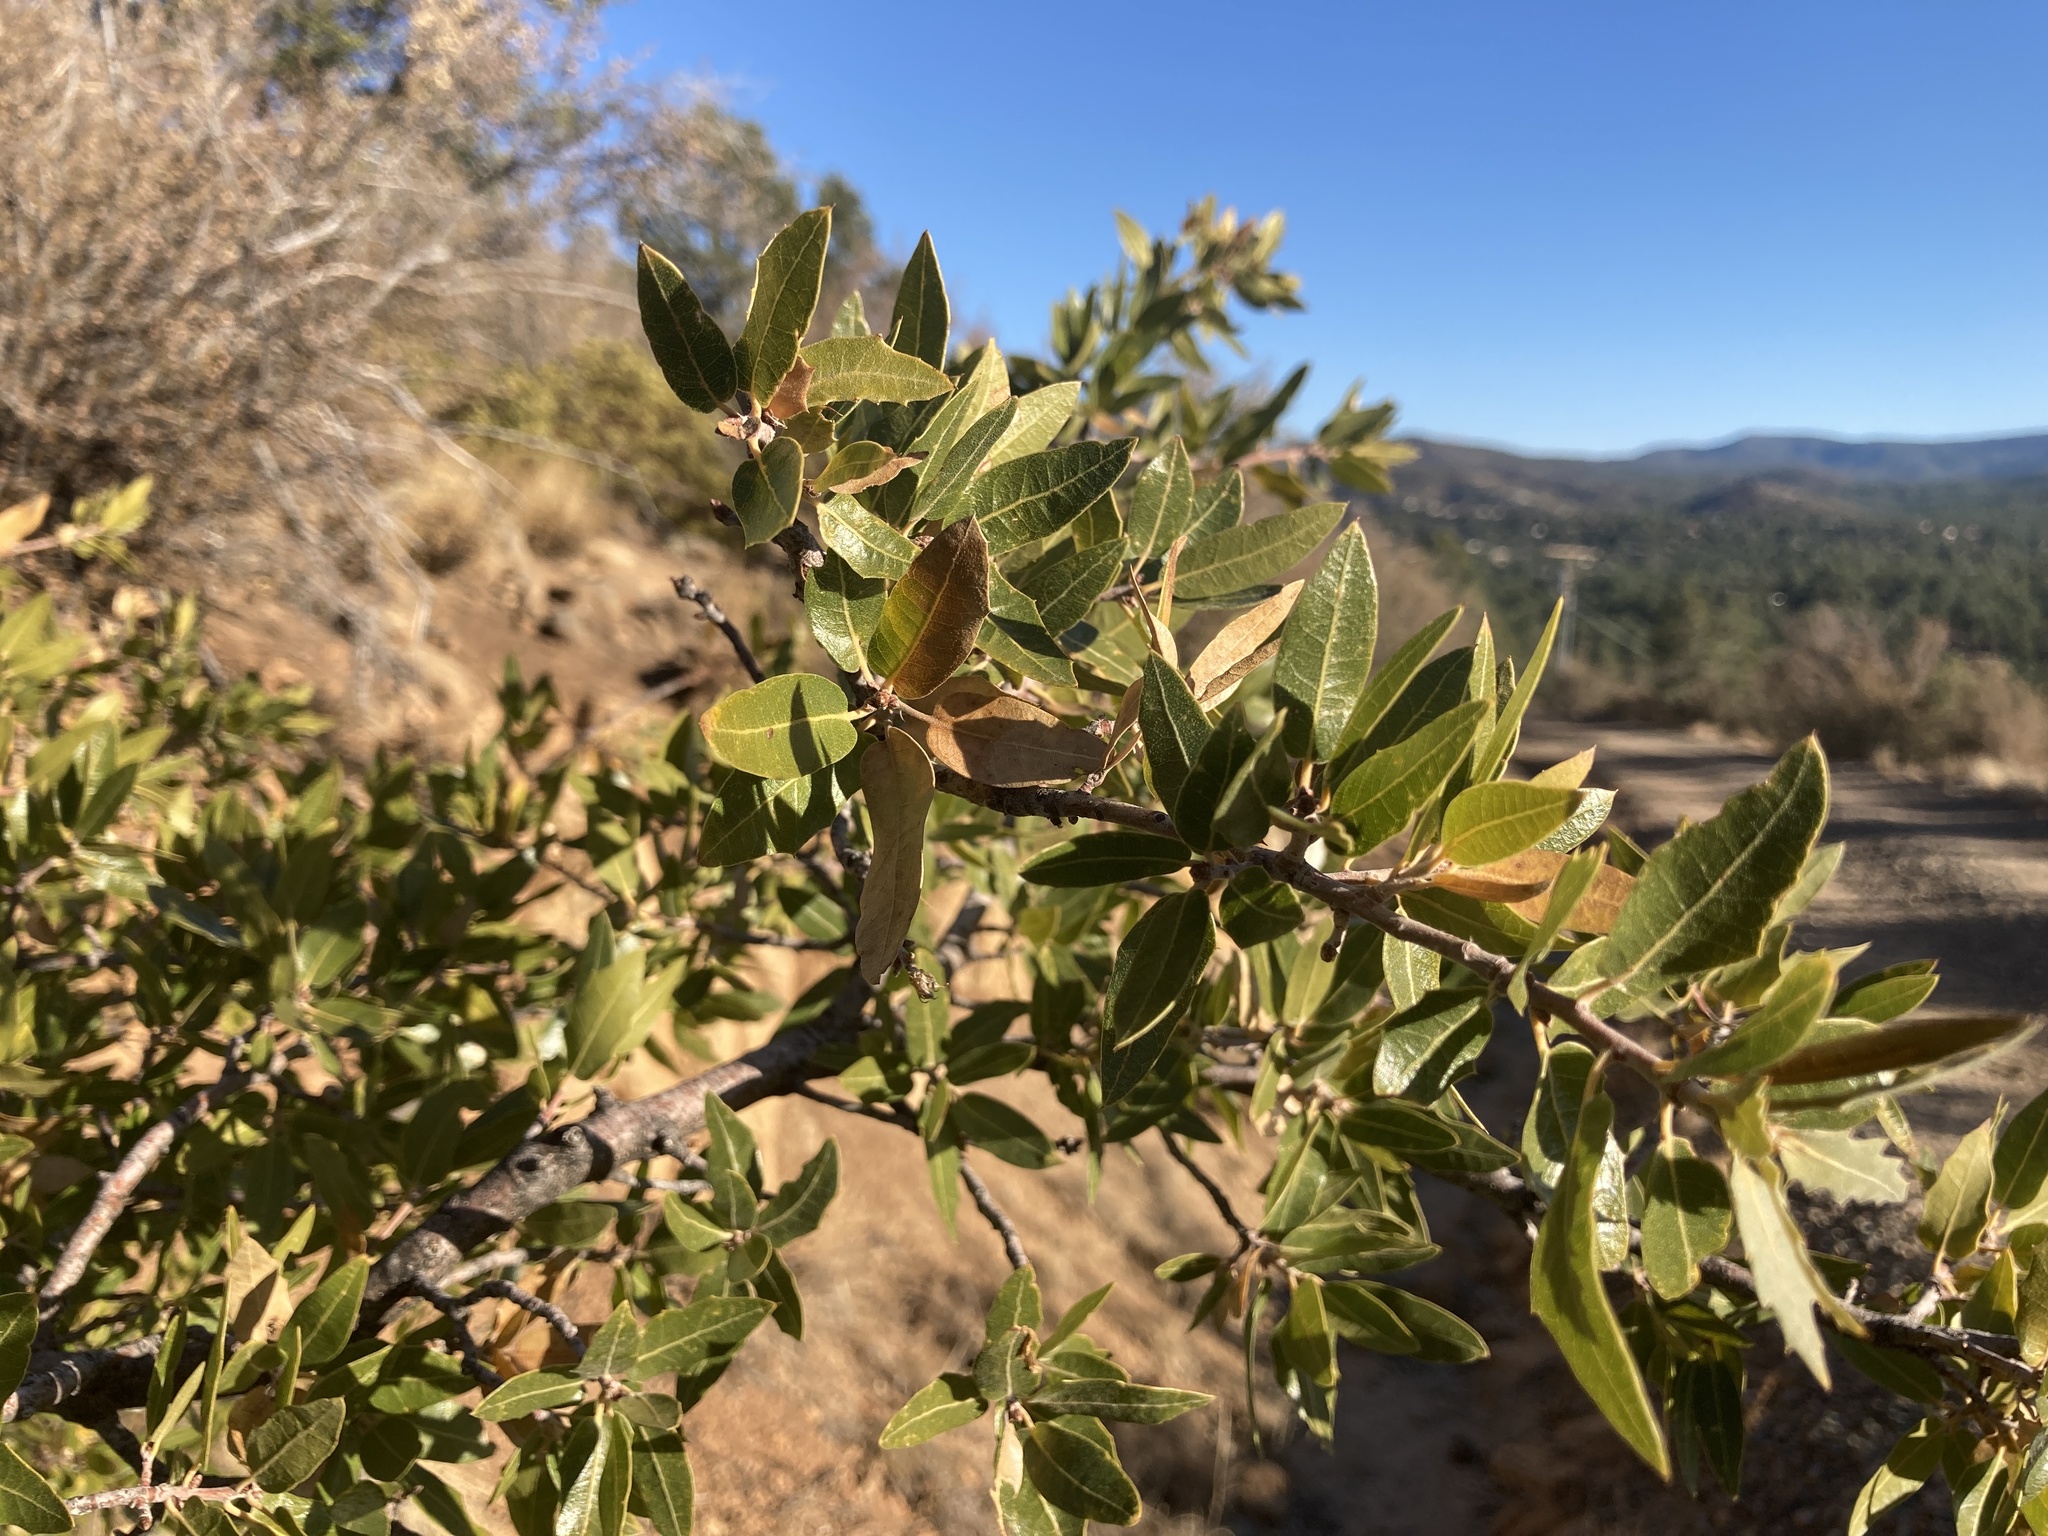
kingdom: Plantae
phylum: Tracheophyta
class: Magnoliopsida
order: Fagales
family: Fagaceae
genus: Quercus
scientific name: Quercus emoryi
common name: Emory oak
